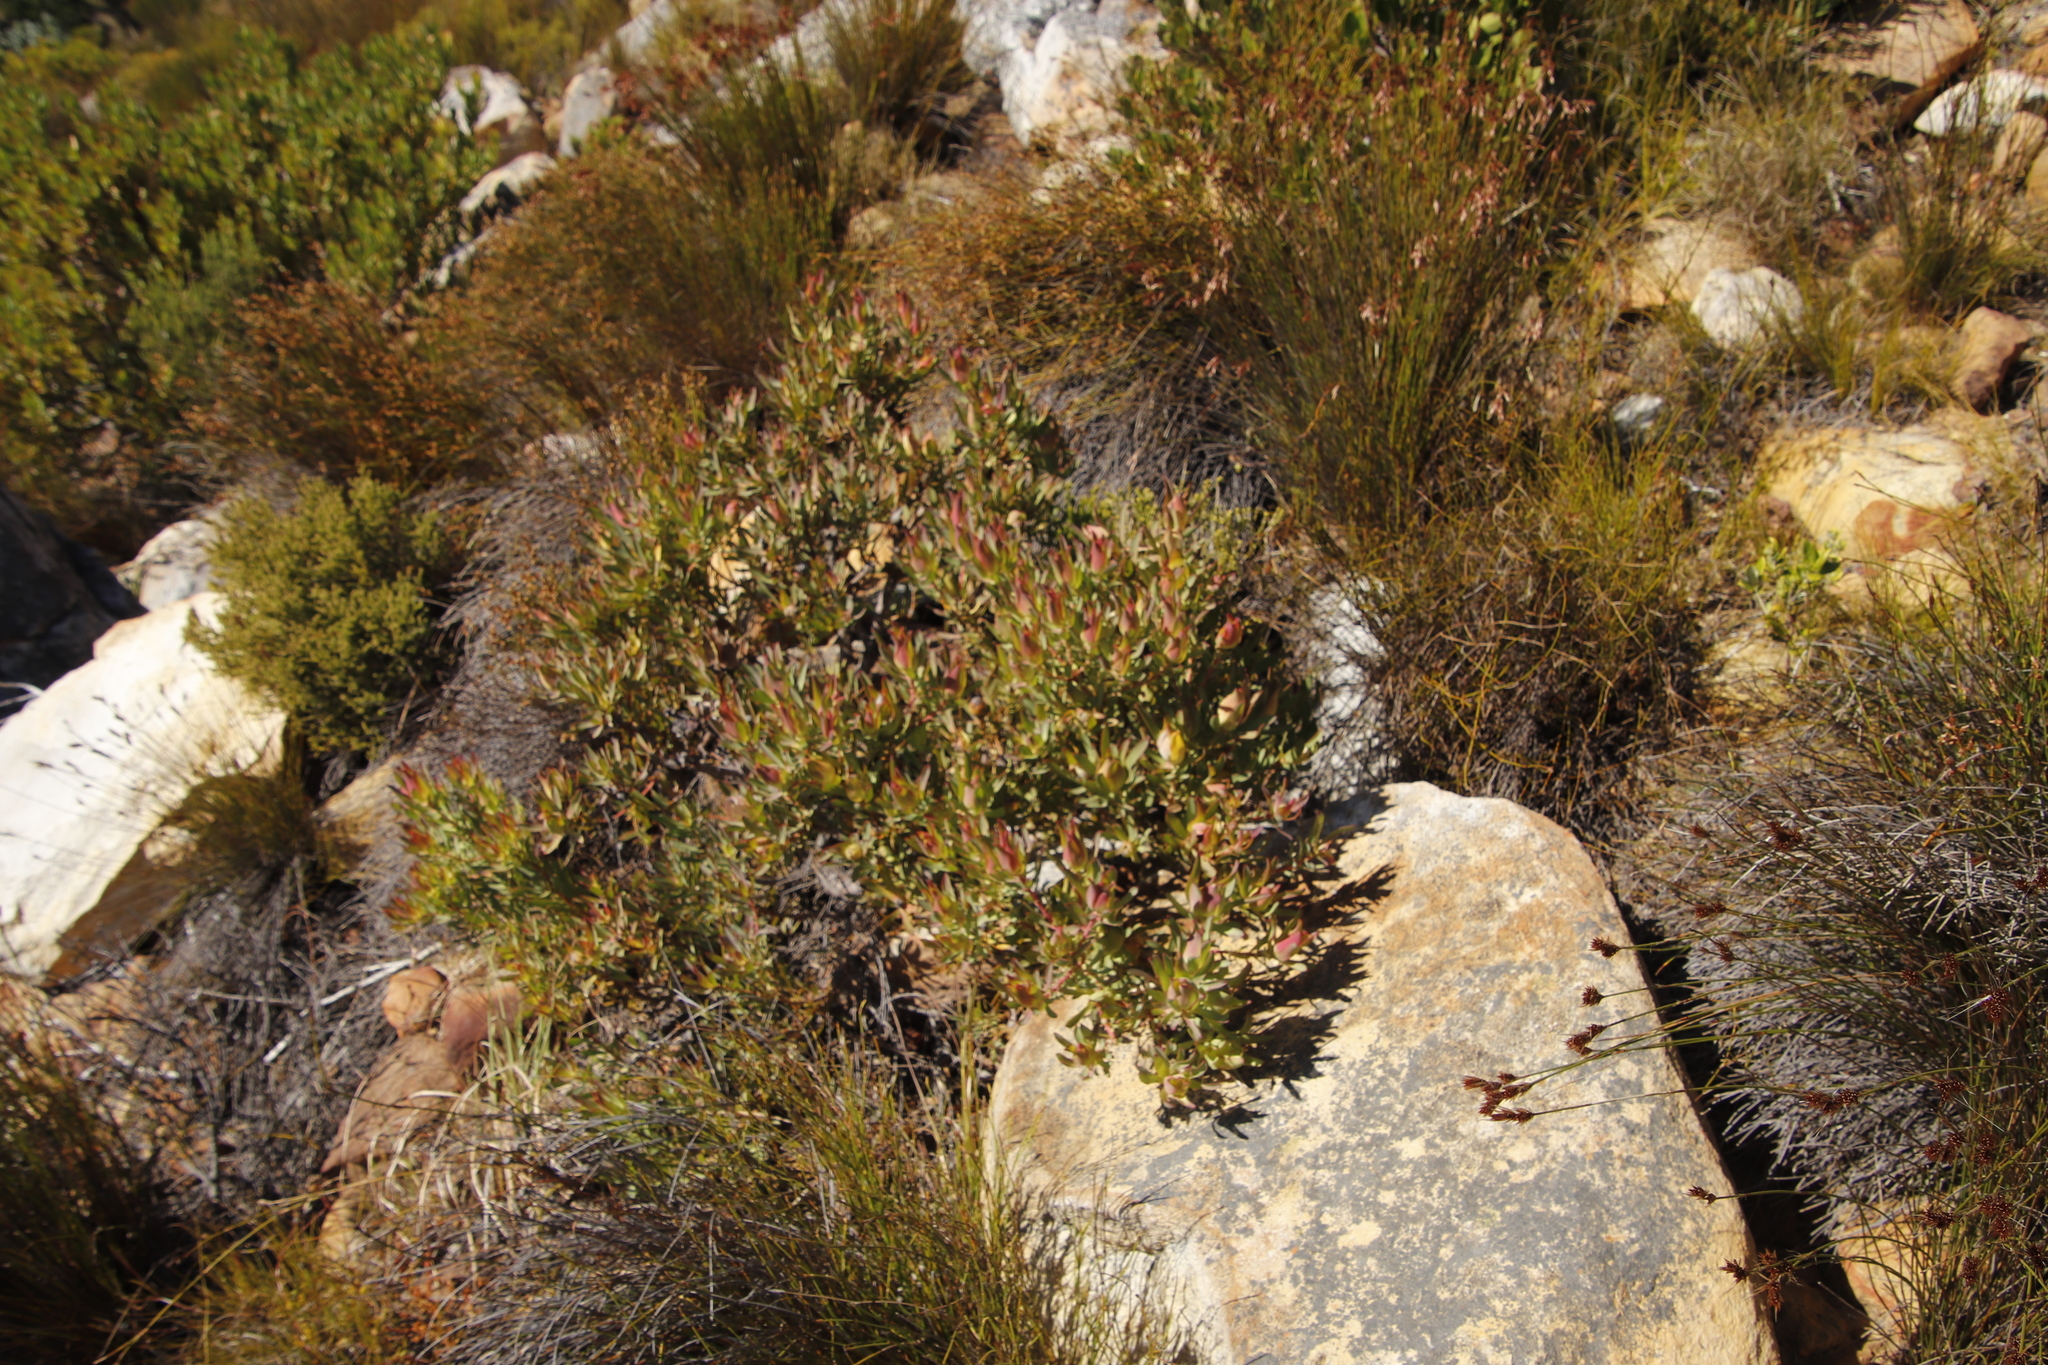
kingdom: Plantae
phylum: Tracheophyta
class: Magnoliopsida
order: Proteales
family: Proteaceae
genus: Leucadendron
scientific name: Leucadendron salignum
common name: Common sunshine conebush
